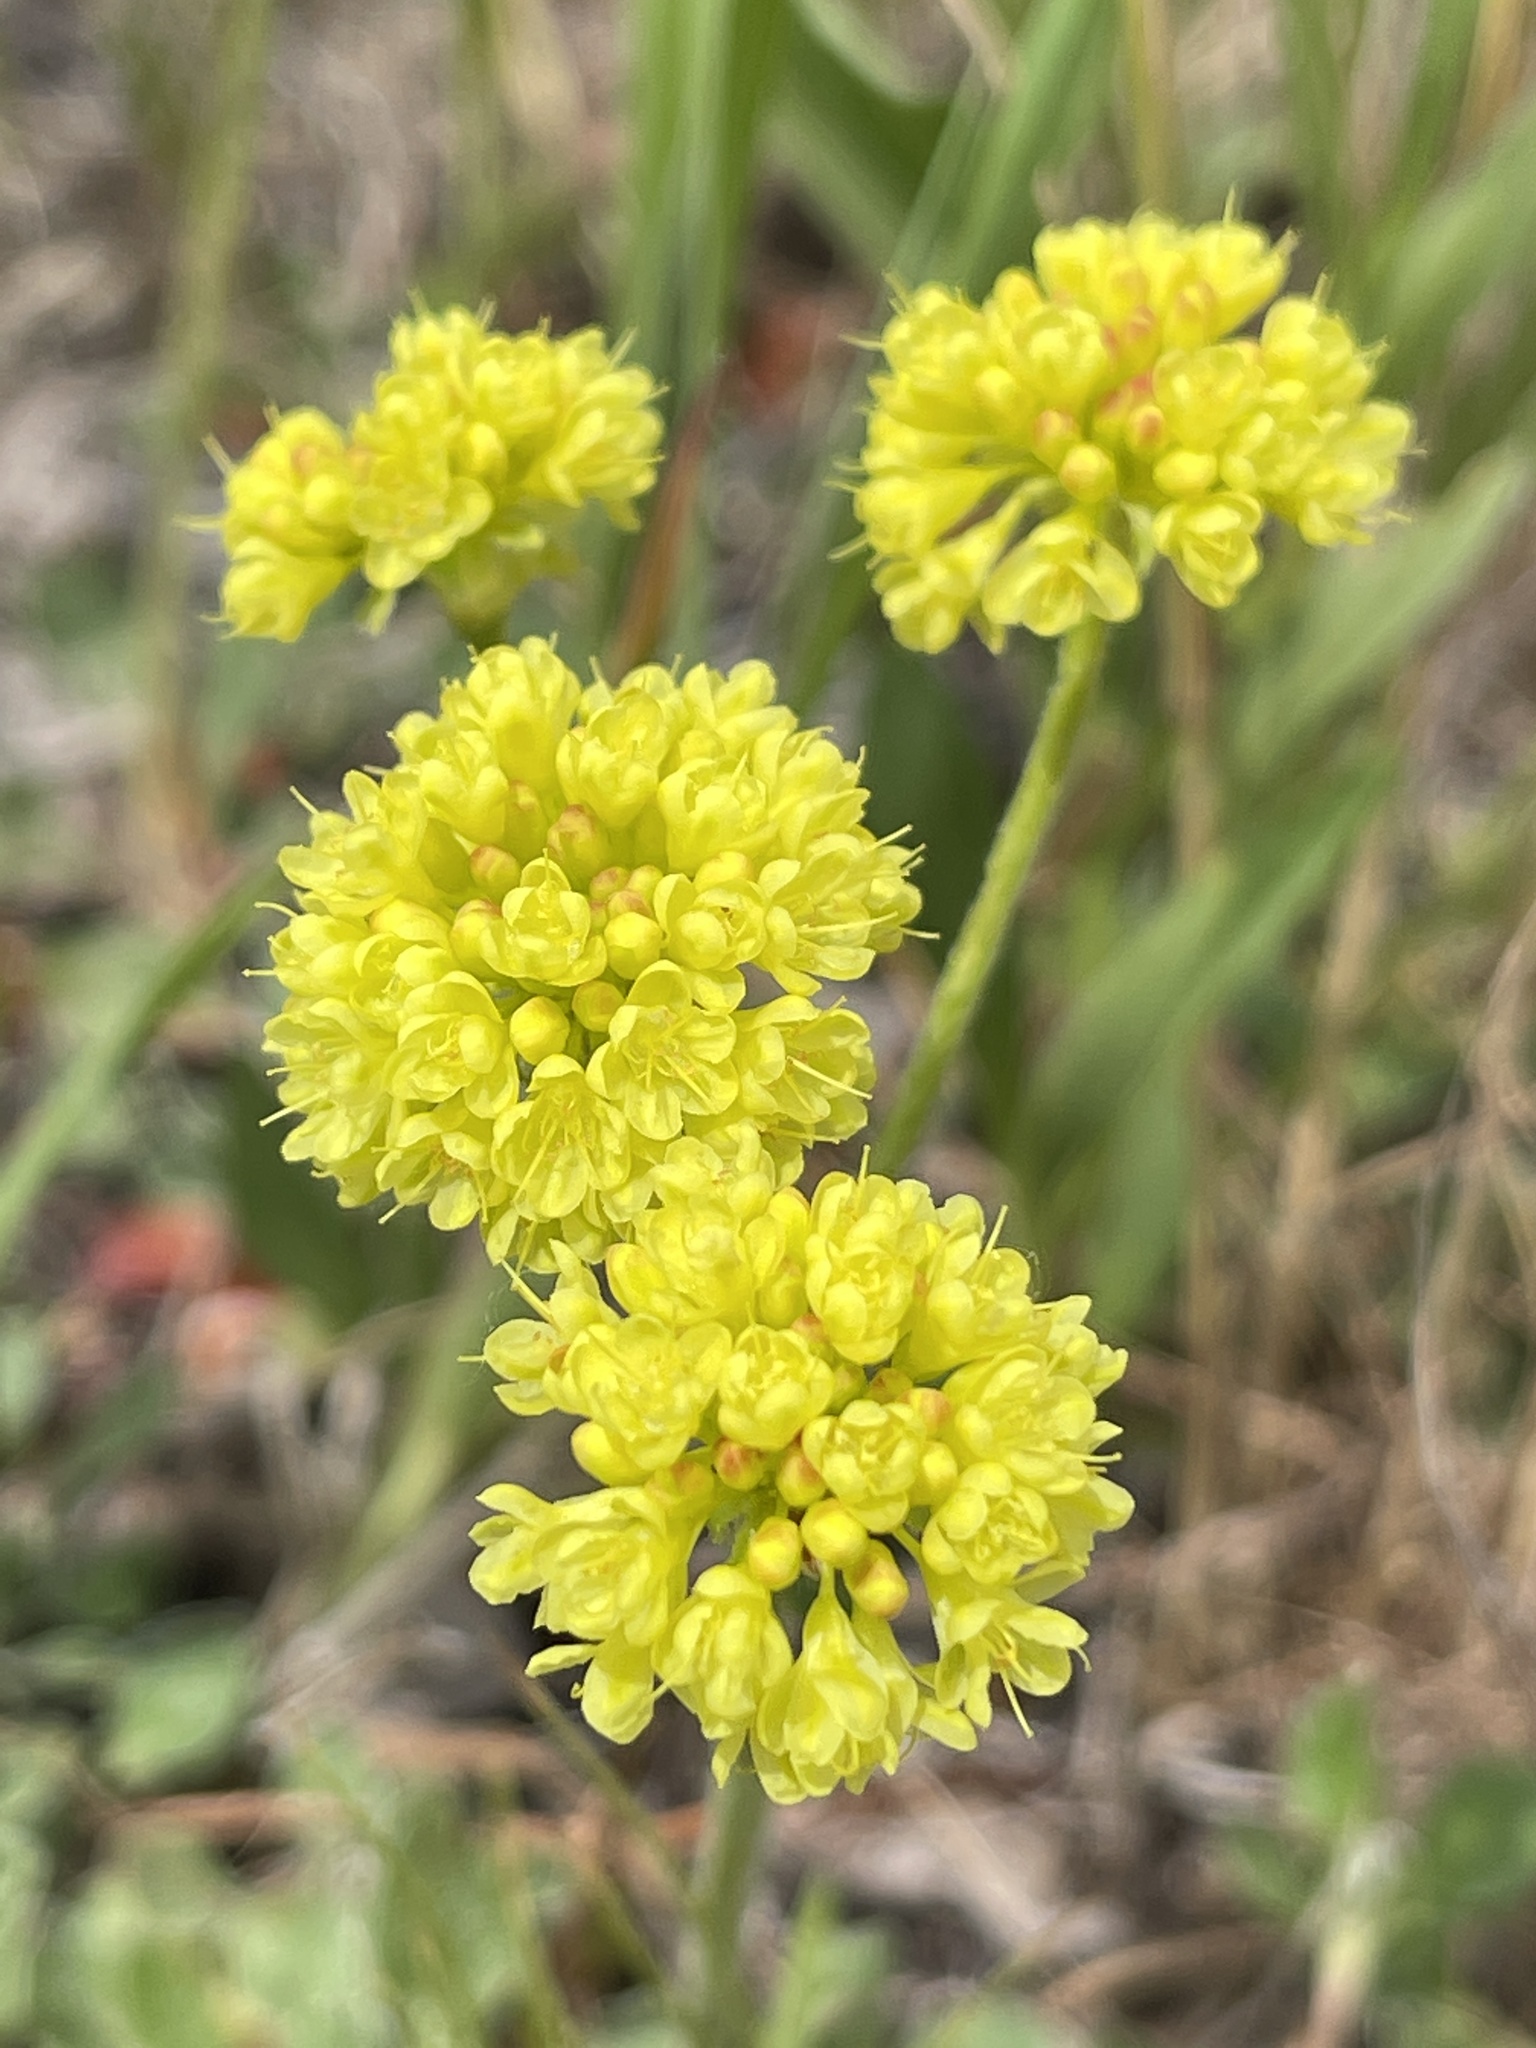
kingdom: Plantae
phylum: Tracheophyta
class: Magnoliopsida
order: Caryophyllales
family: Polygonaceae
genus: Eriogonum
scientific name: Eriogonum umbellatum
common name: Sulfur-buckwheat
